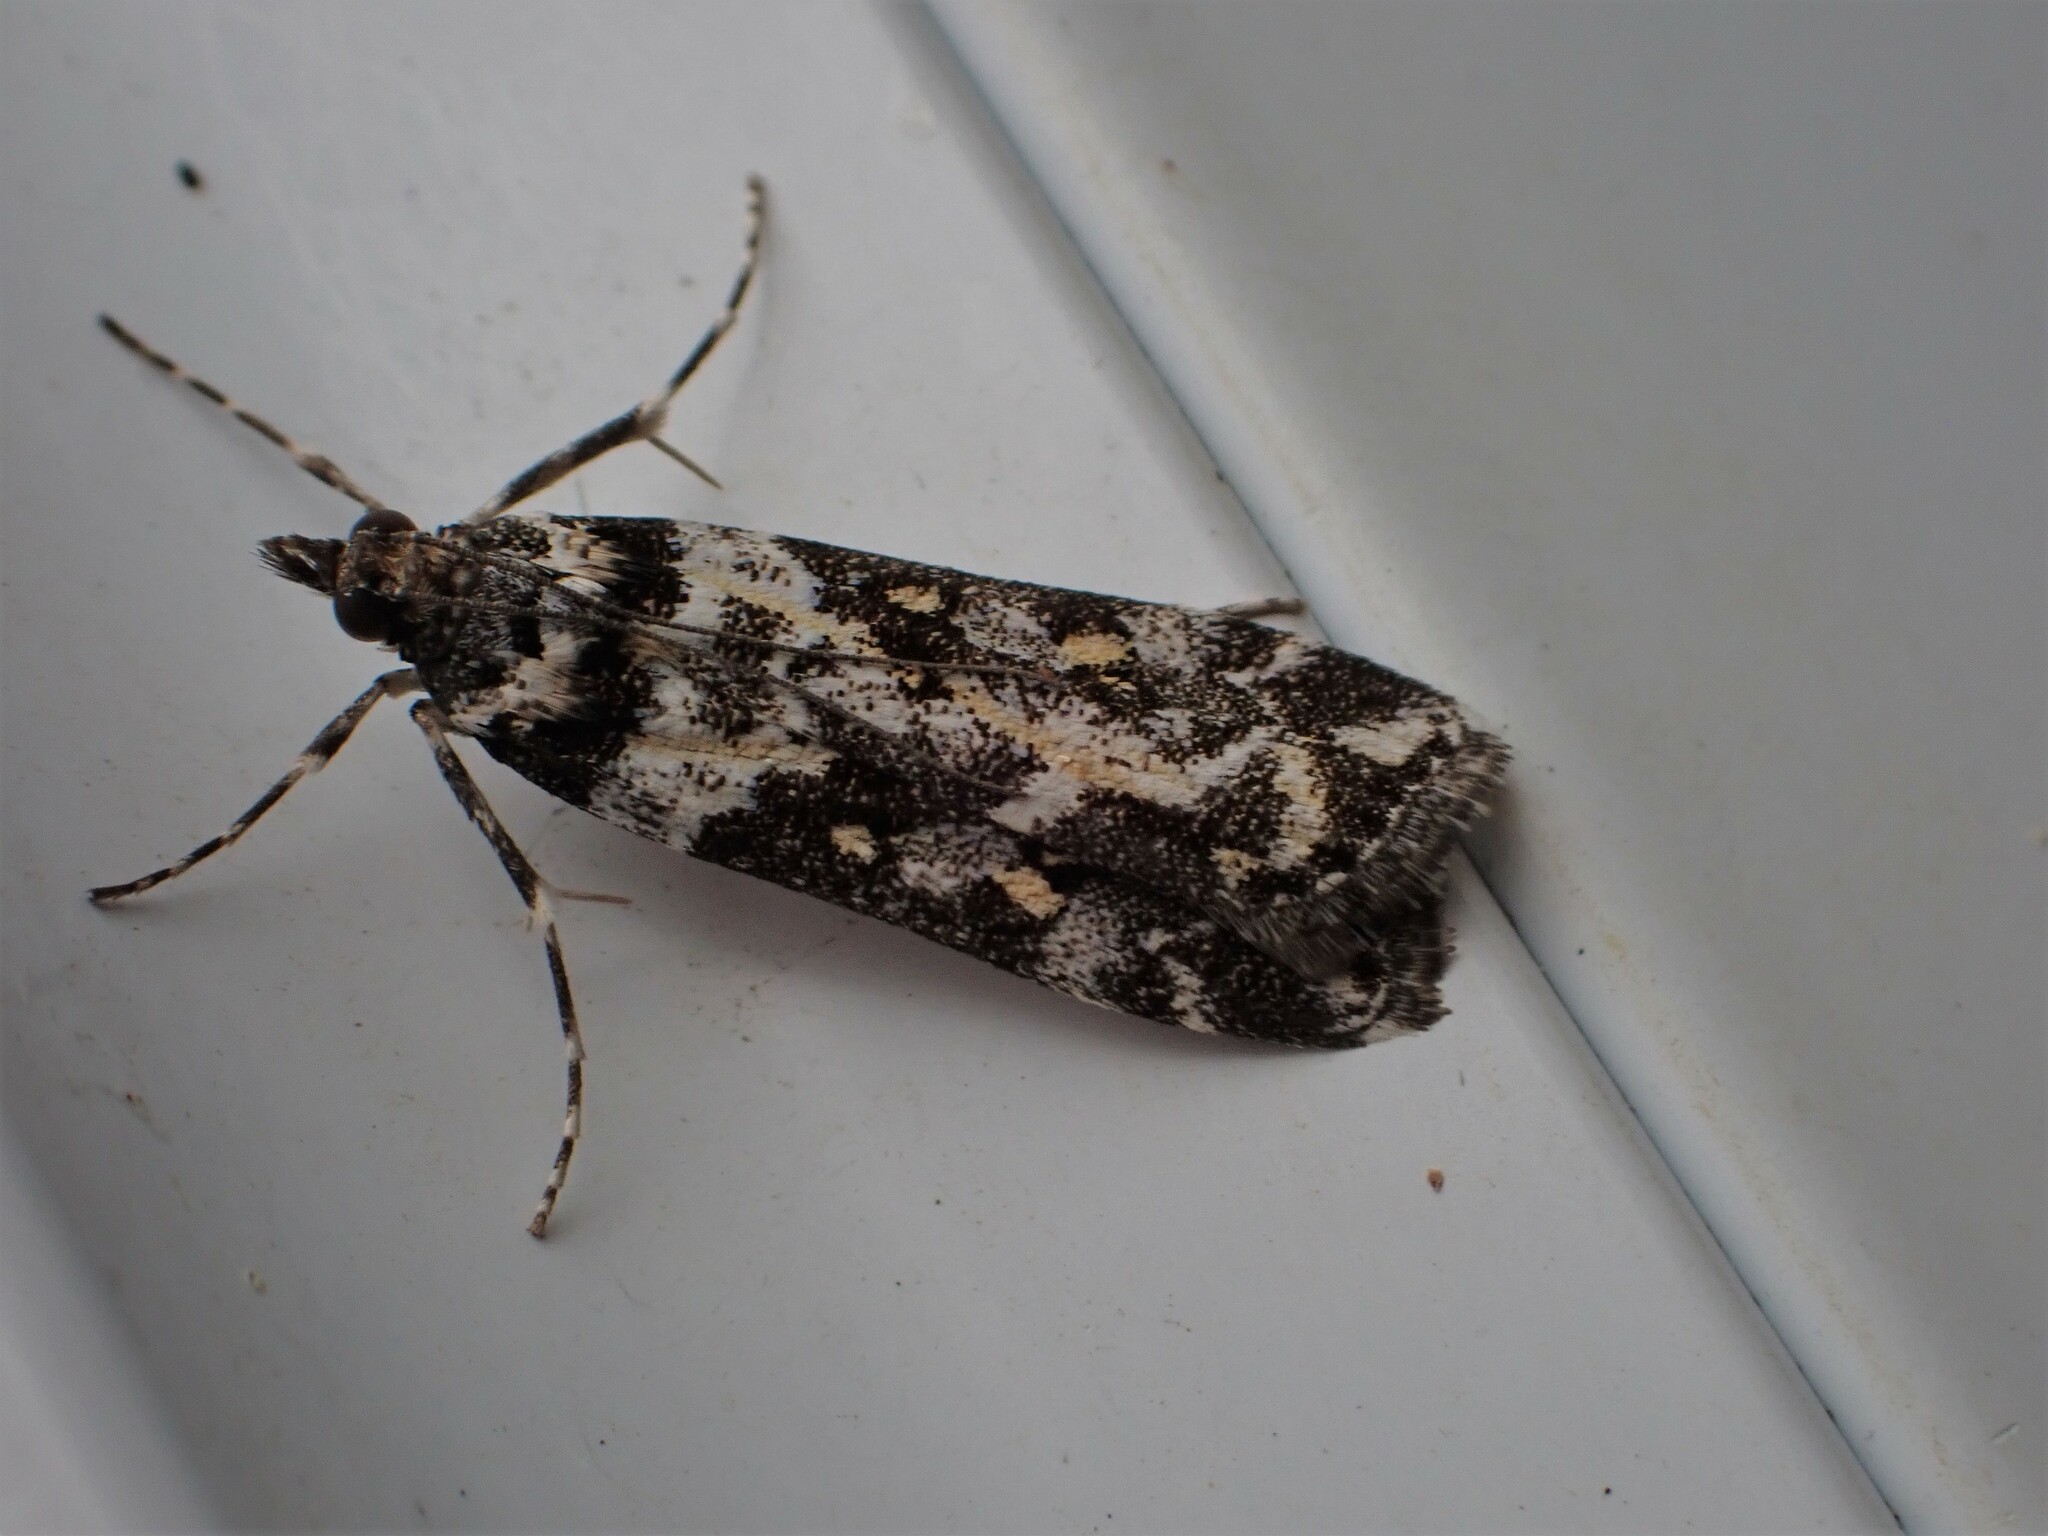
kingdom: Animalia
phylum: Arthropoda
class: Insecta
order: Lepidoptera
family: Crambidae
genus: Eudonia
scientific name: Eudonia diphtheralis
